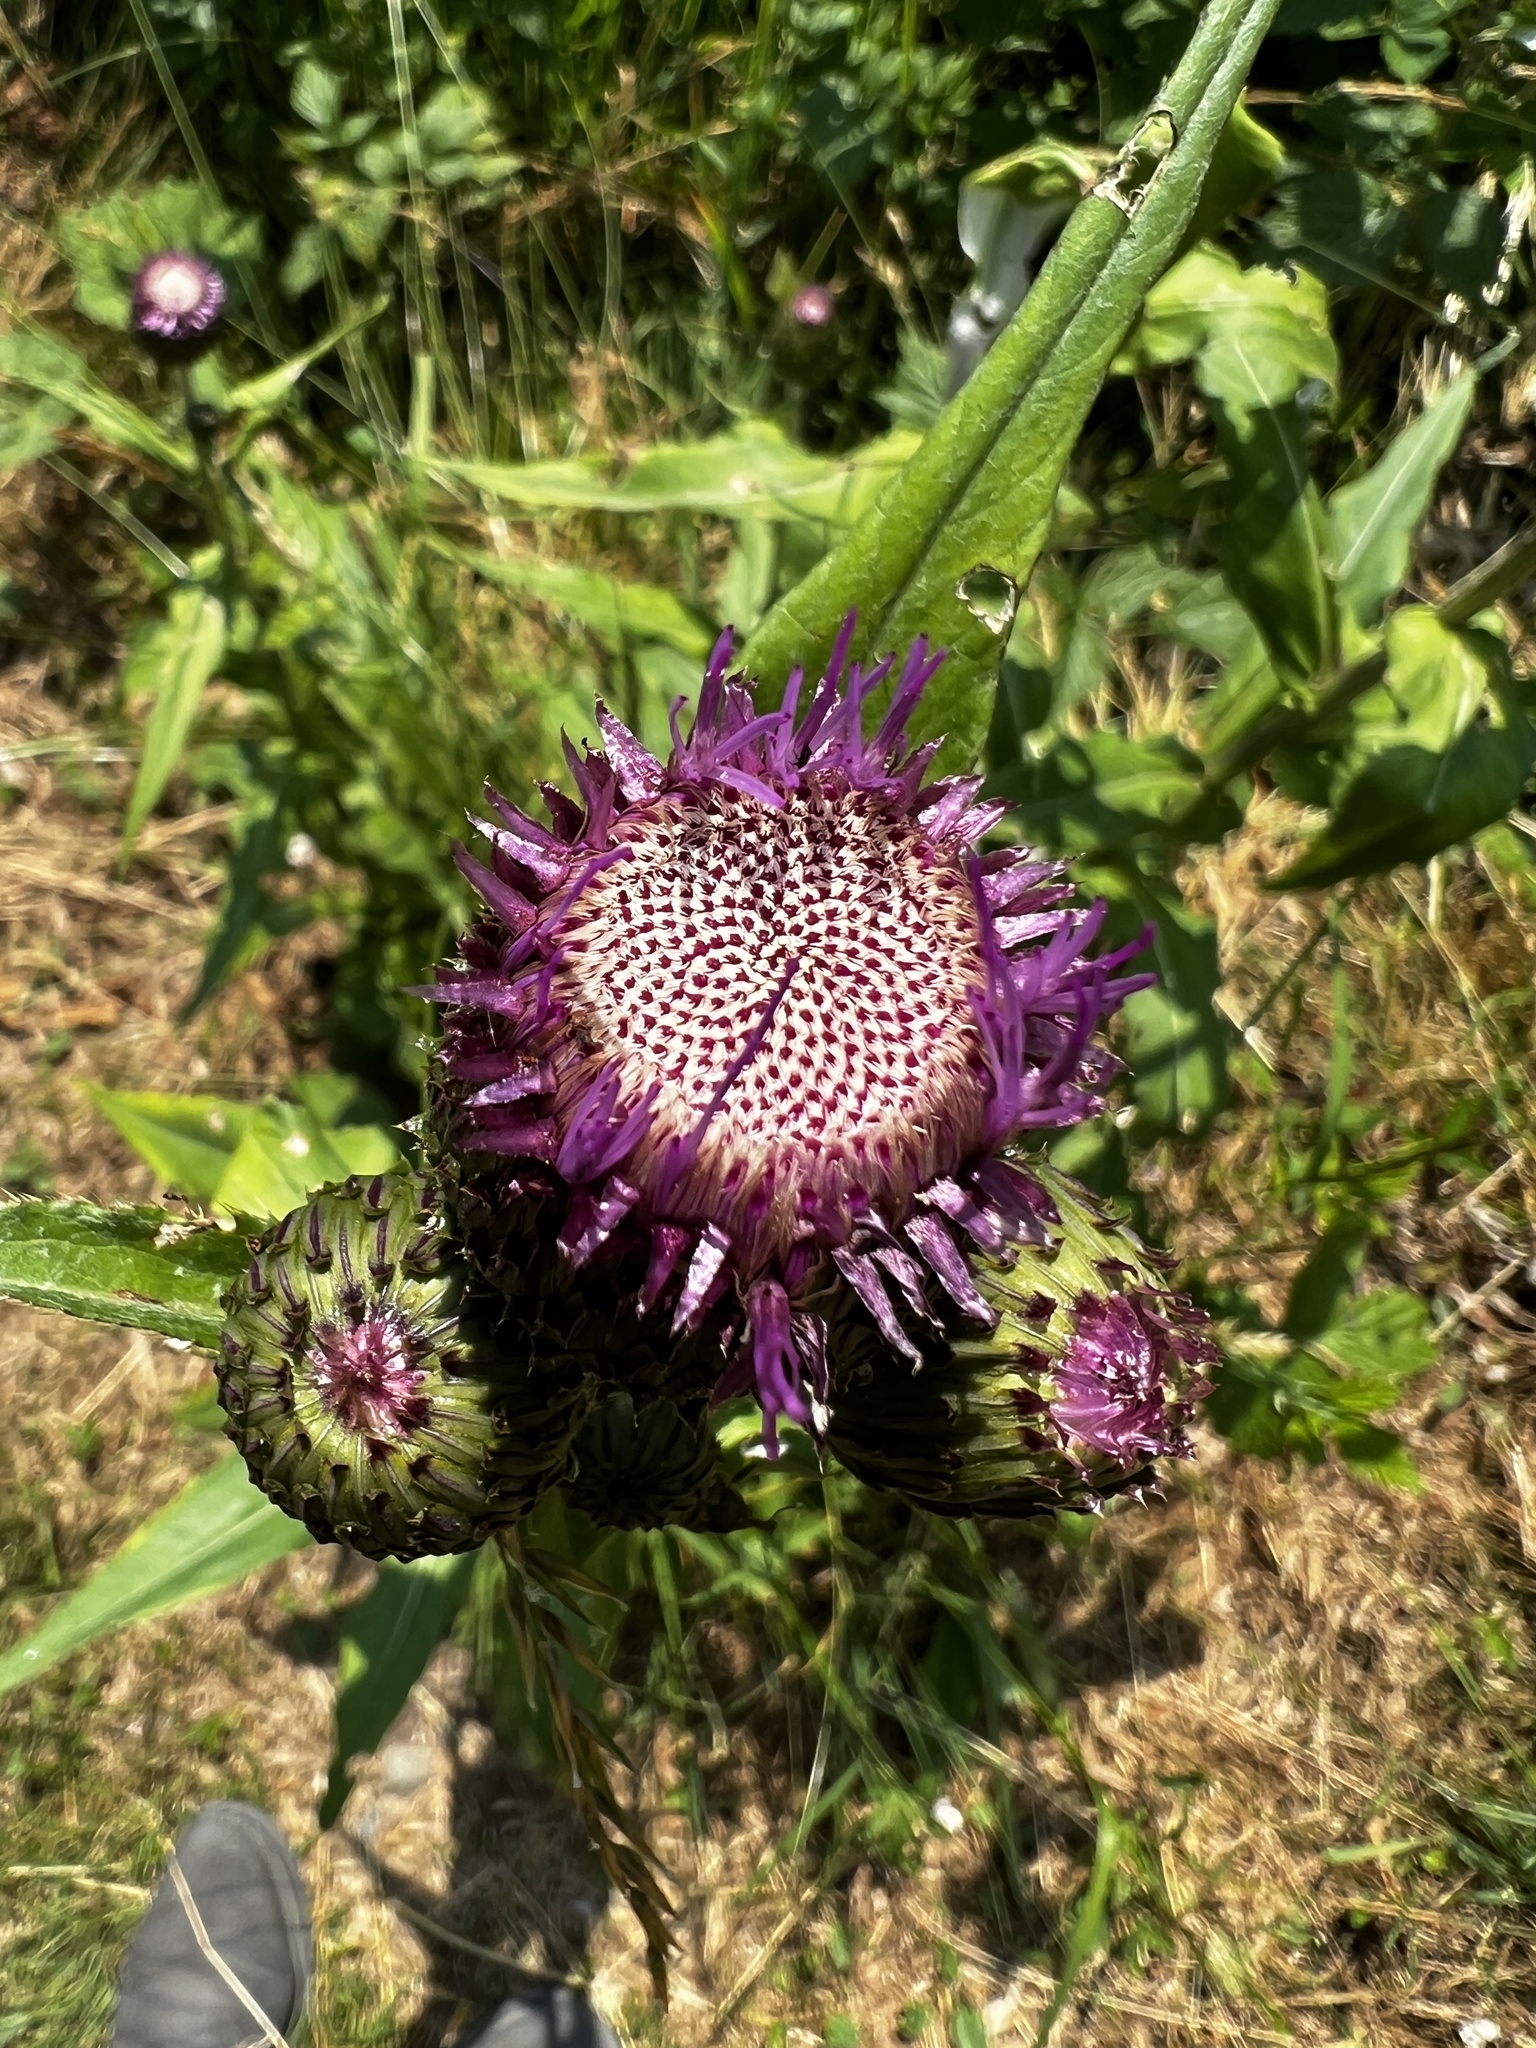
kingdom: Plantae
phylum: Tracheophyta
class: Magnoliopsida
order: Asterales
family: Asteraceae
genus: Cirsium
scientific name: Cirsium heterophyllum
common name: Melancholy thistle
